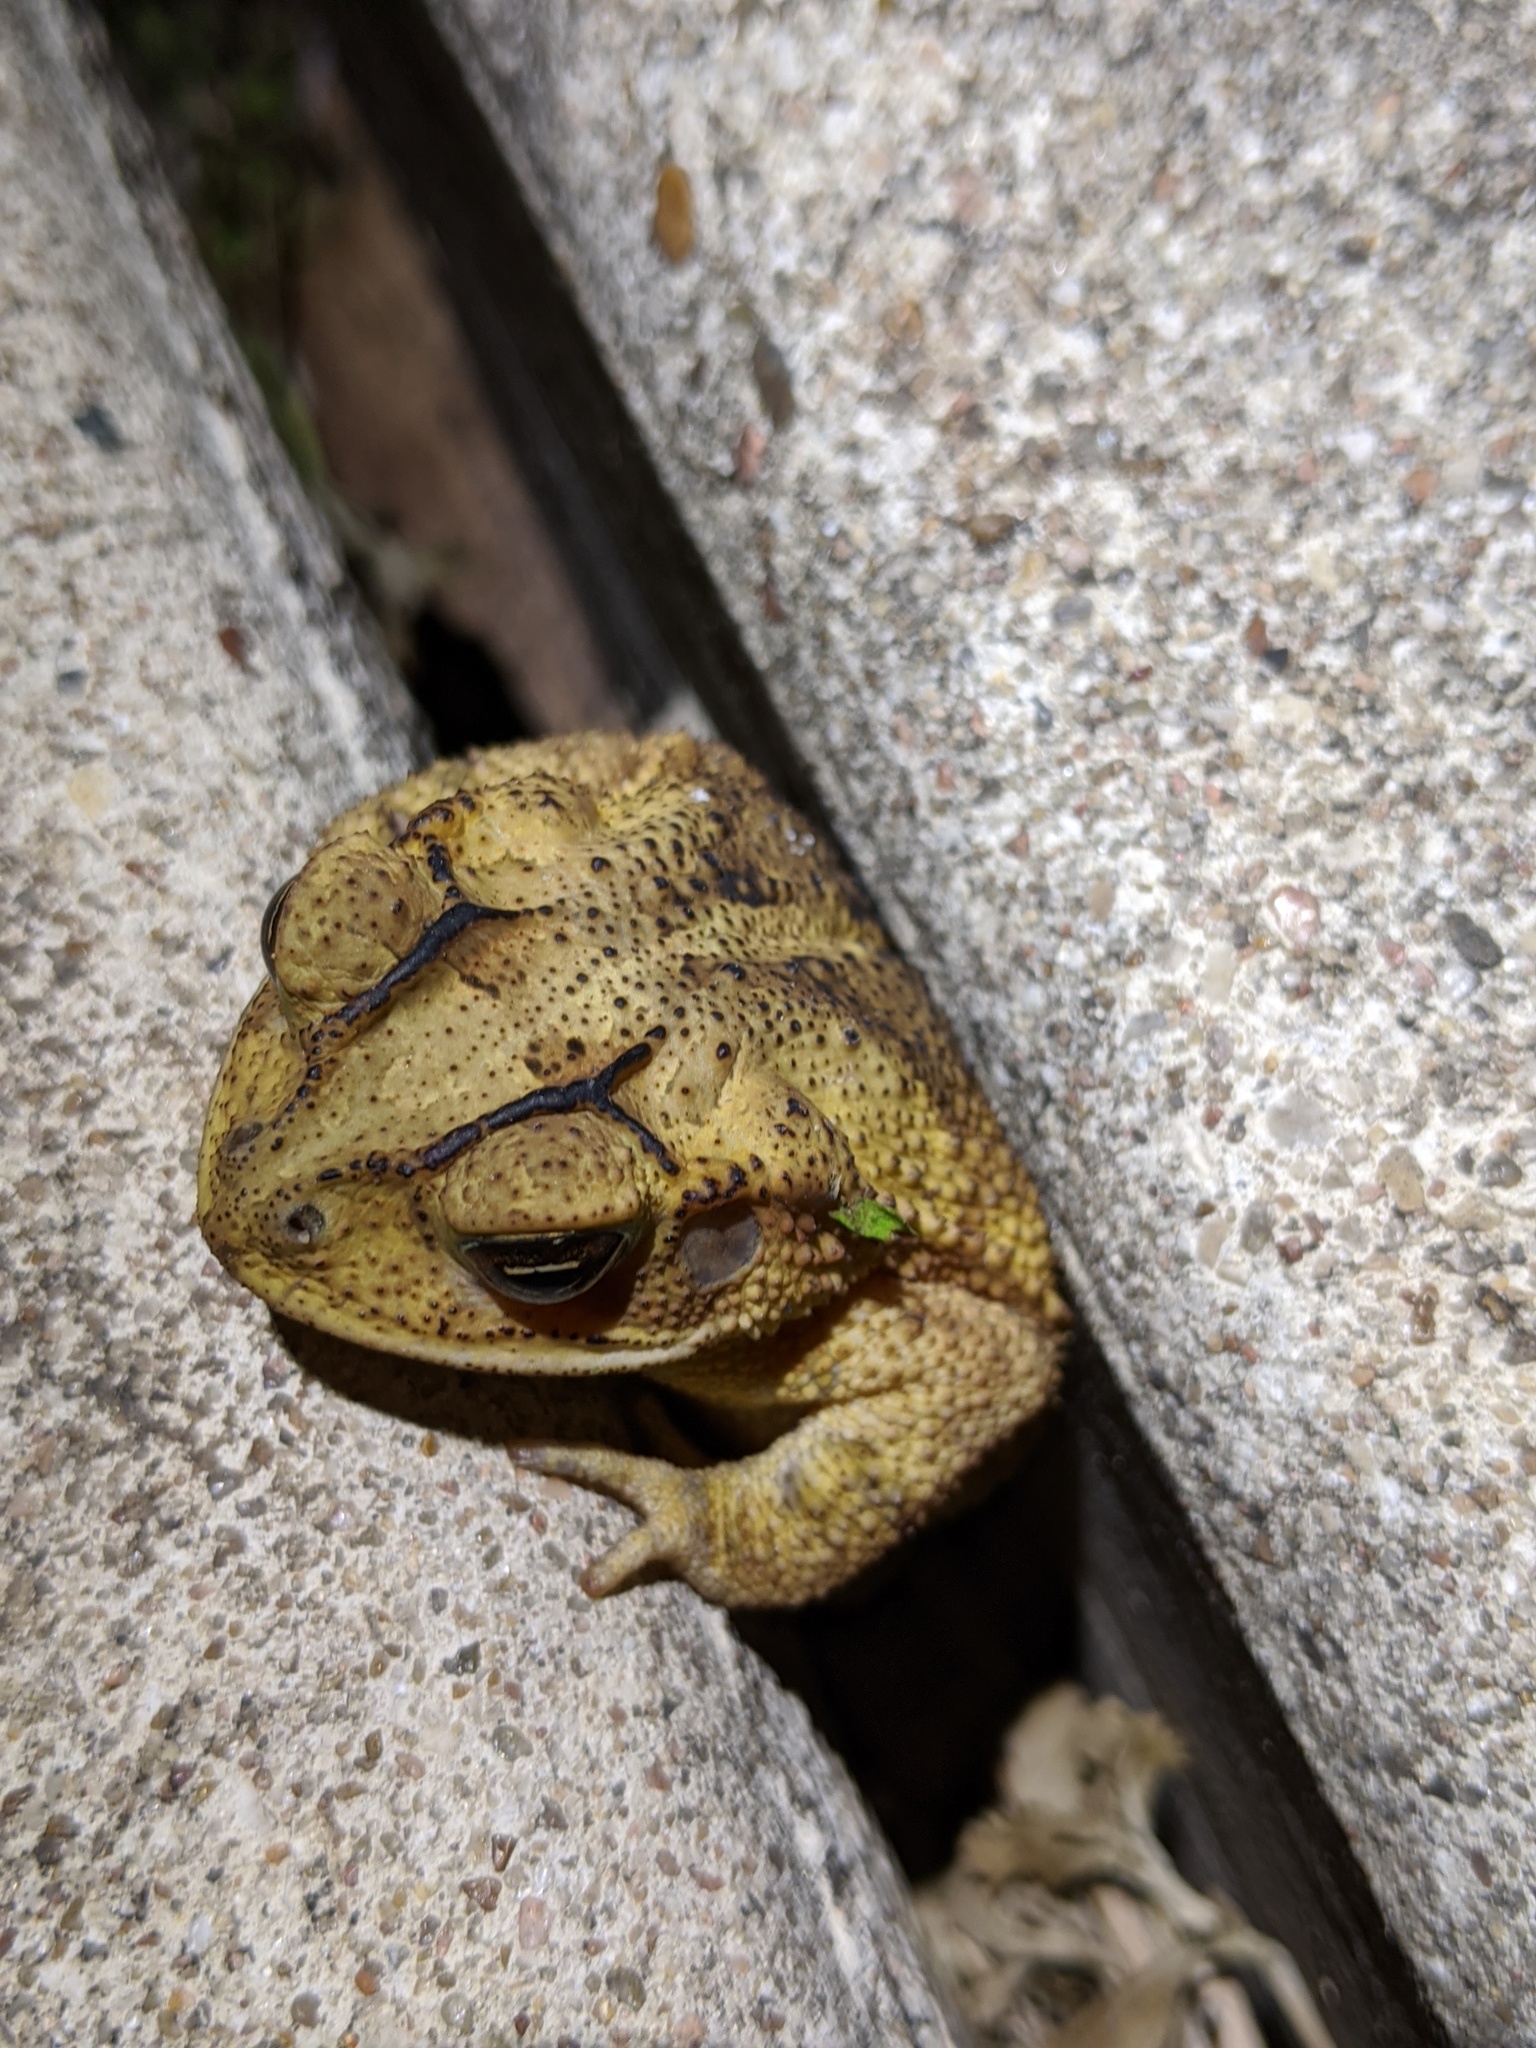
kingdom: Animalia
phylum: Chordata
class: Amphibia
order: Anura
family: Bufonidae
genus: Incilius
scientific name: Incilius nebulifer
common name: Gulf coast toad
